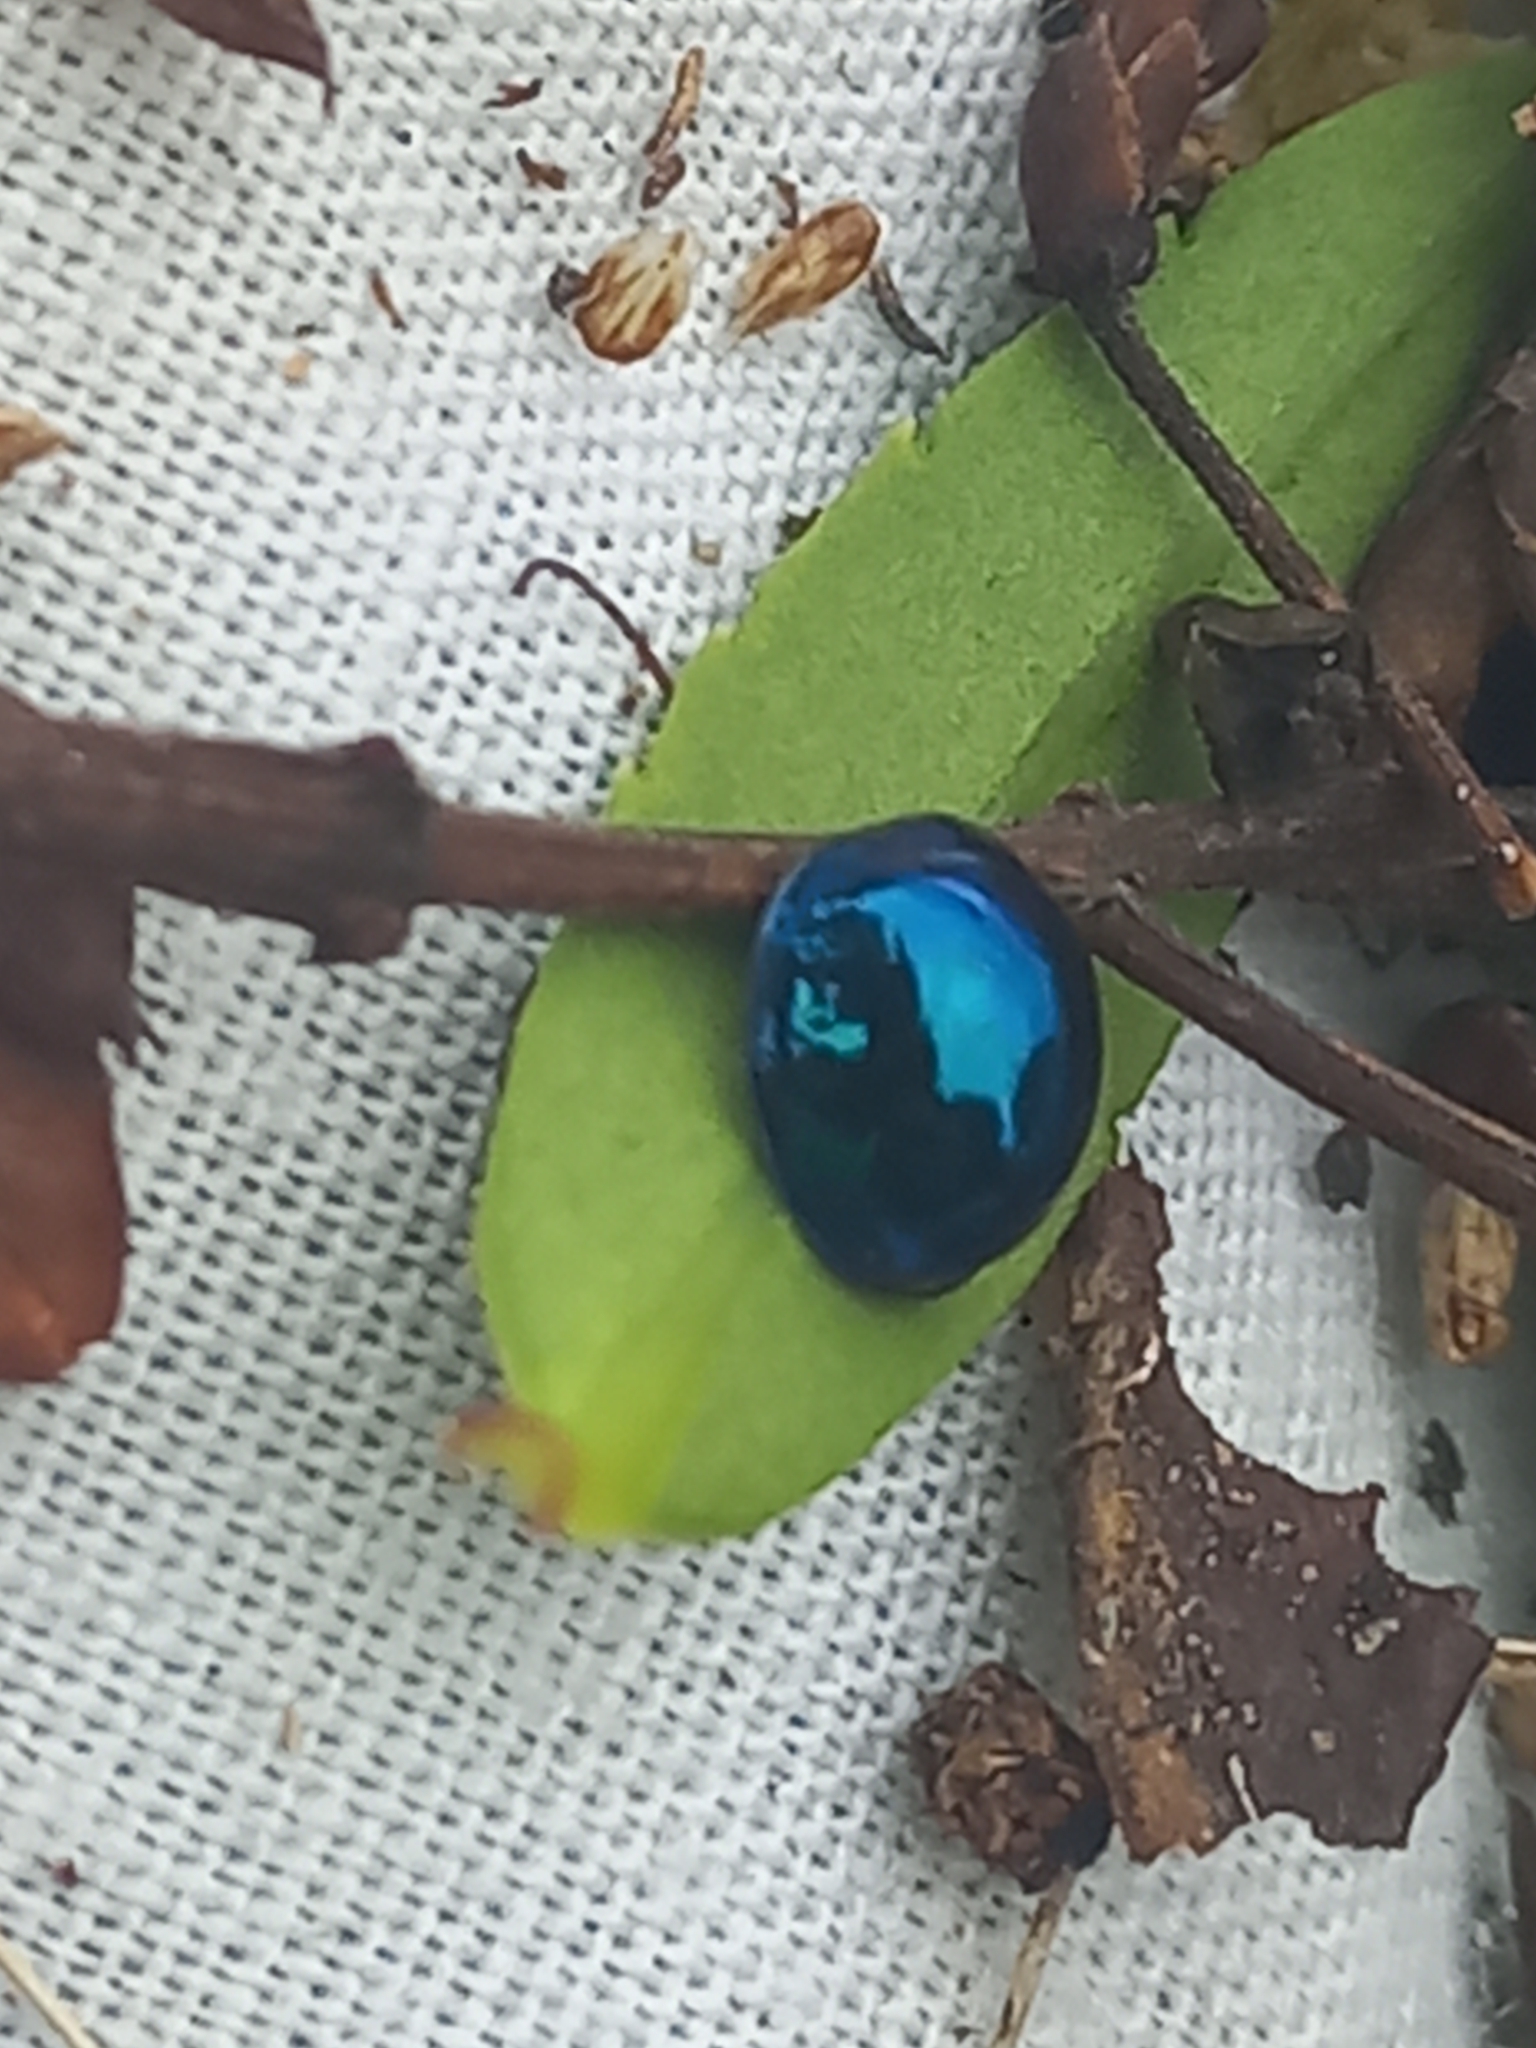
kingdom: Animalia
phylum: Arthropoda
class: Insecta
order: Coleoptera
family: Coccinellidae
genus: Halmus
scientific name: Halmus chalybeus
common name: Steel blue ladybird beetle
